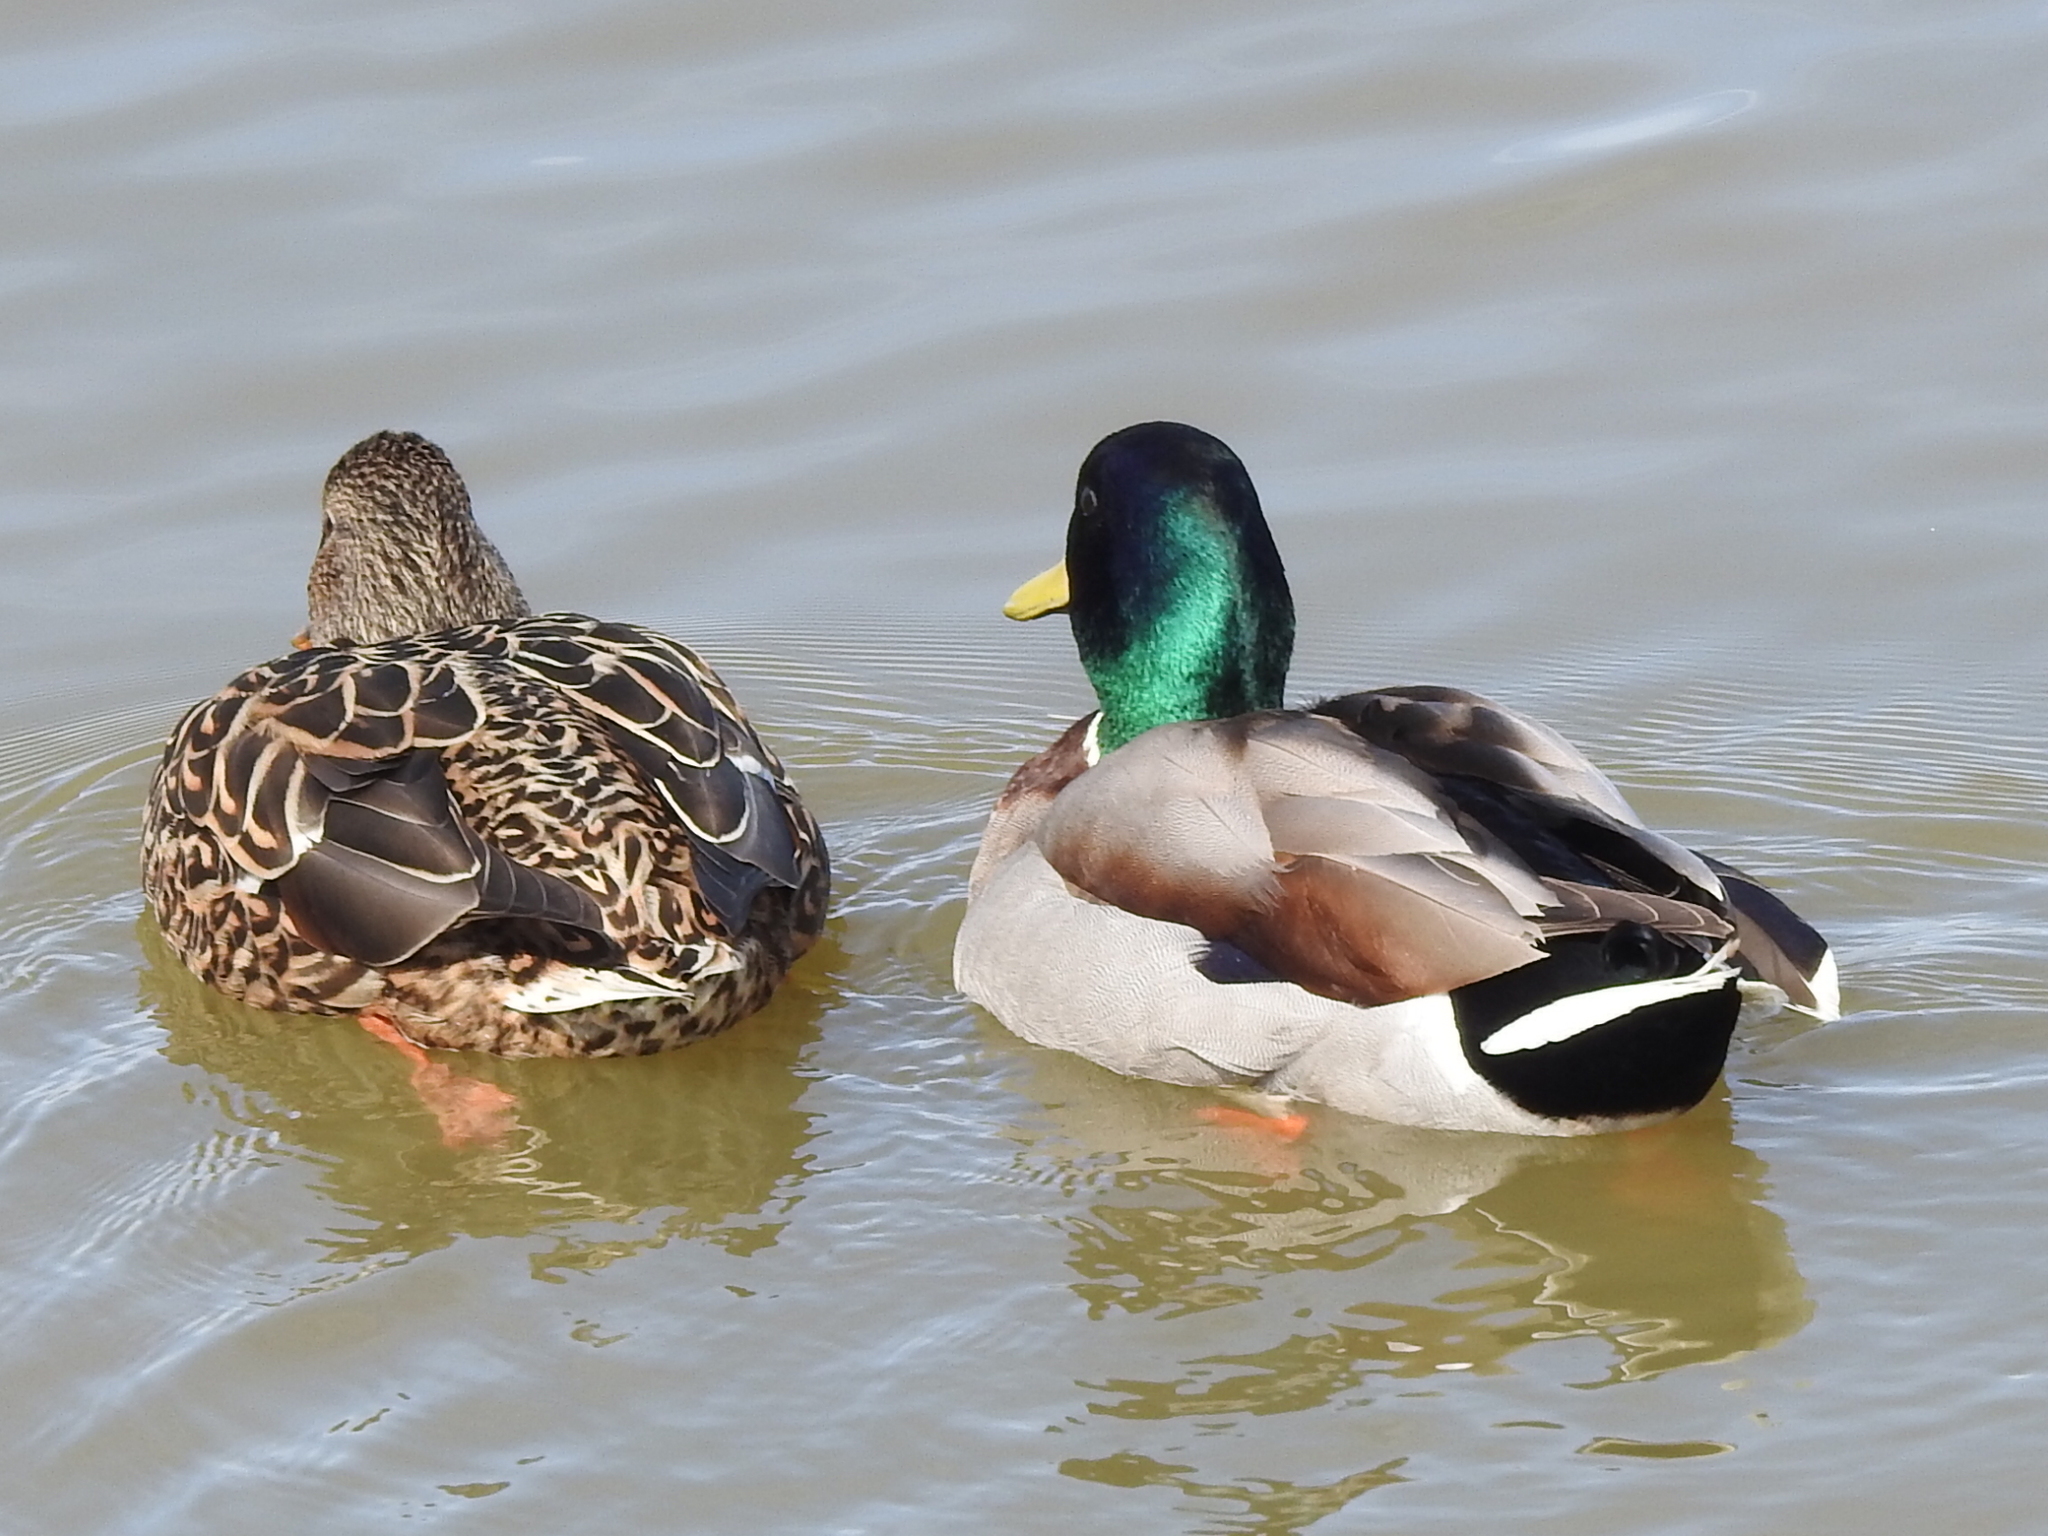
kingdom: Animalia
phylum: Chordata
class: Aves
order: Anseriformes
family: Anatidae
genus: Anas
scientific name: Anas platyrhynchos
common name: Mallard
